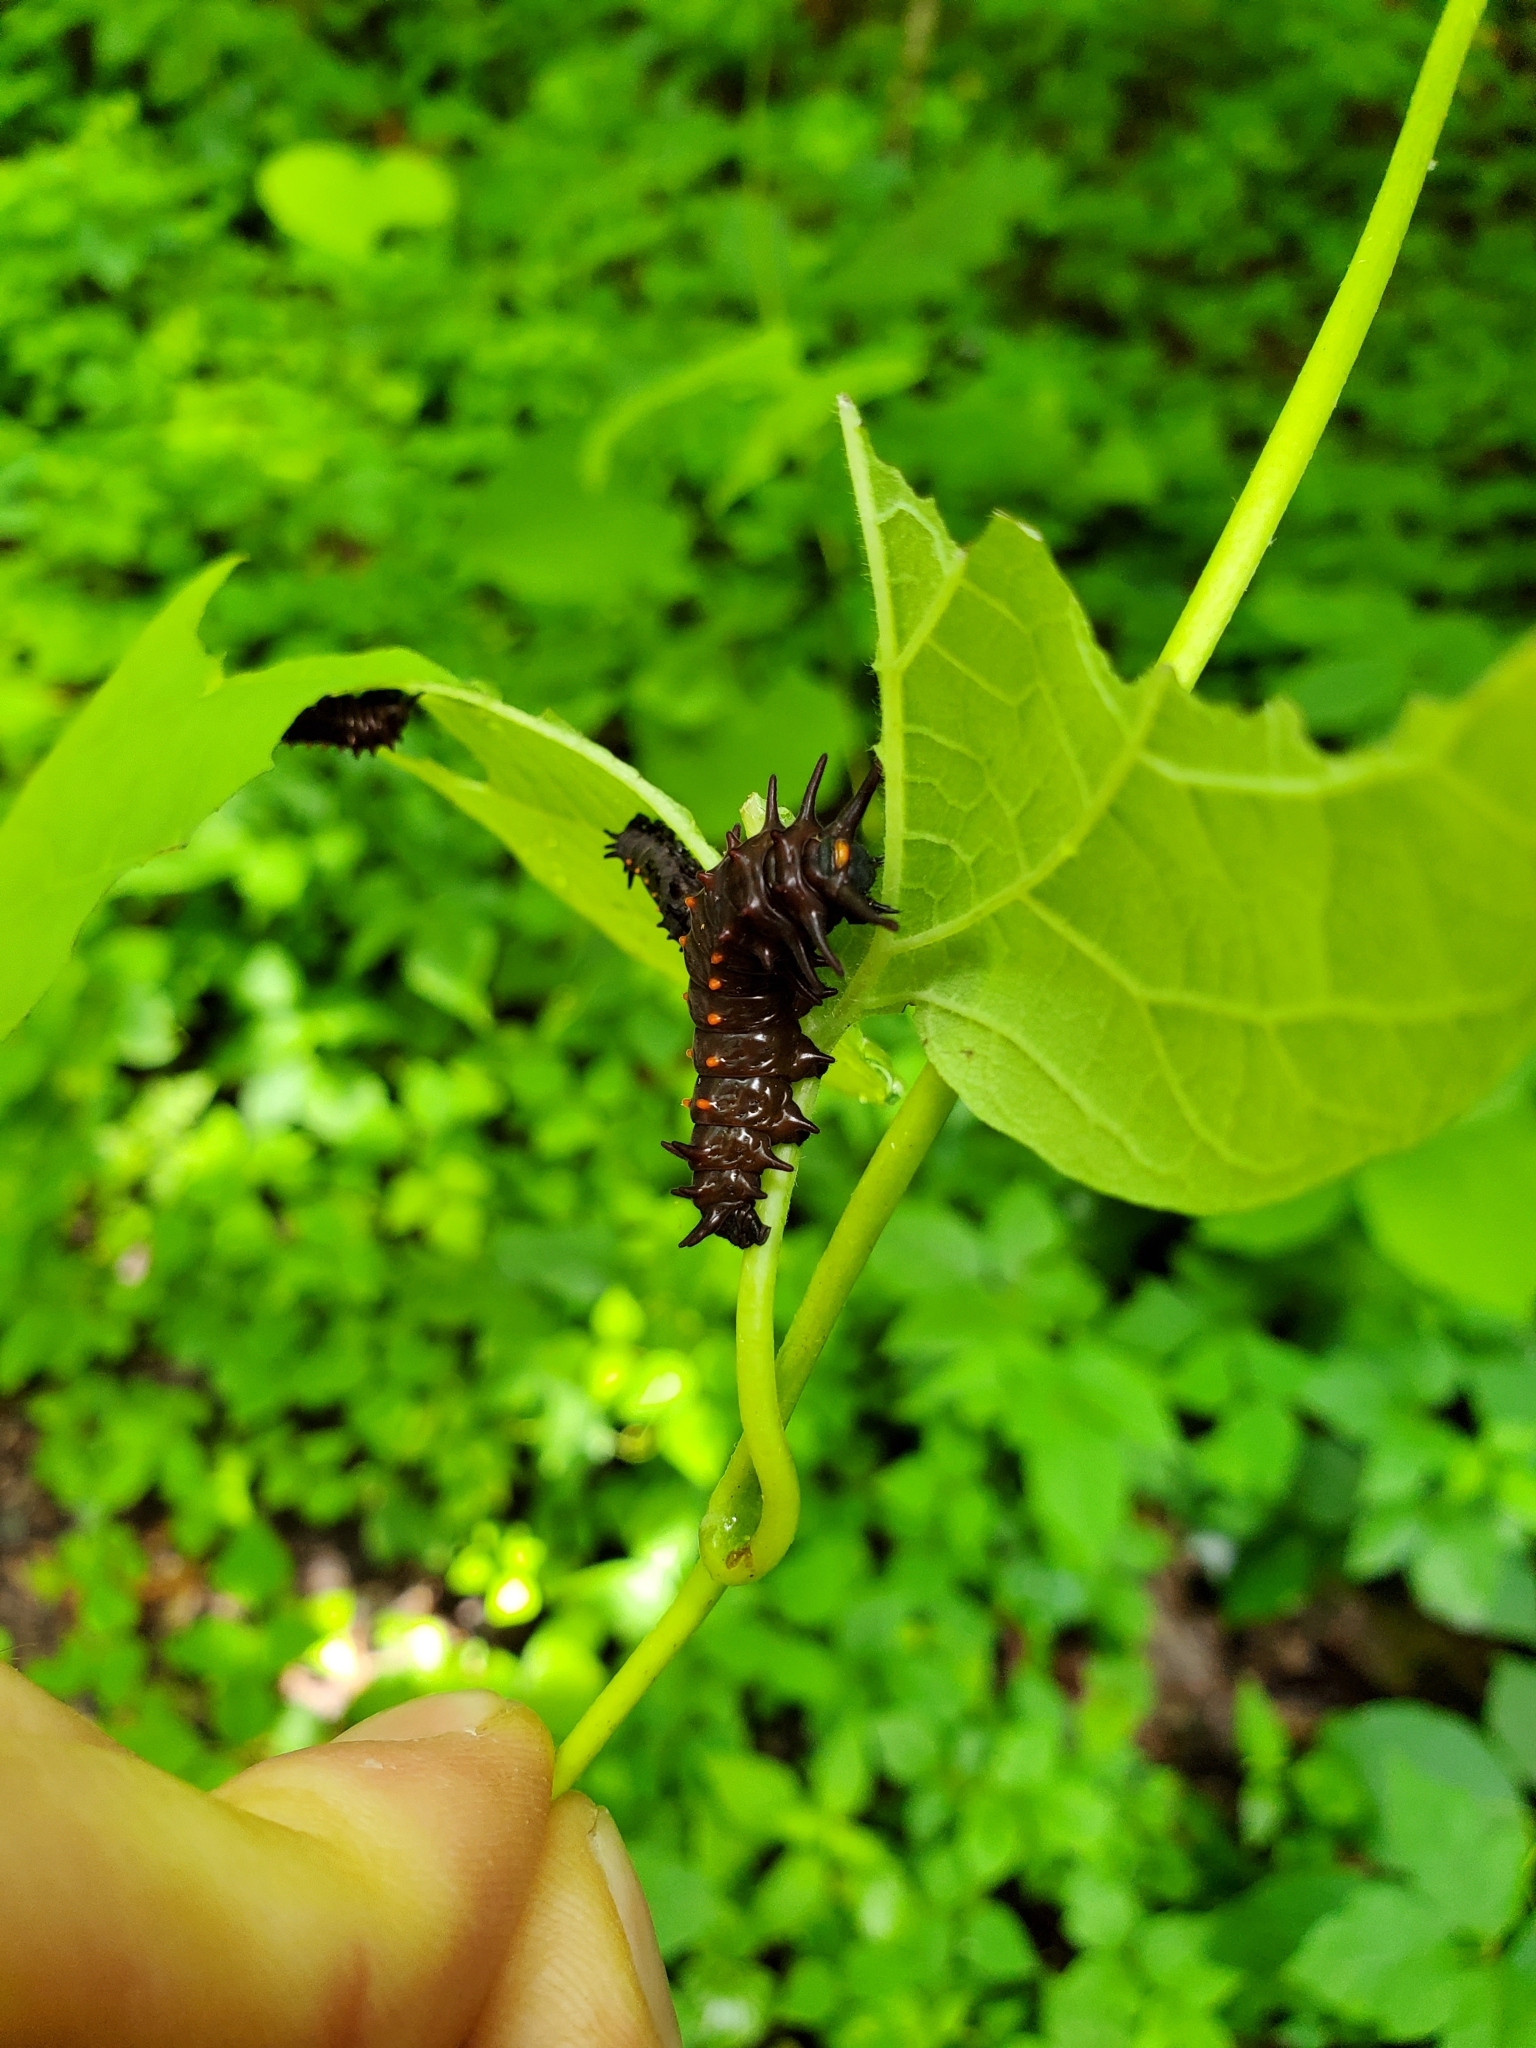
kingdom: Animalia
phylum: Arthropoda
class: Insecta
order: Lepidoptera
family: Papilionidae
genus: Battus
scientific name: Battus philenor
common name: Pipevine swallowtail
